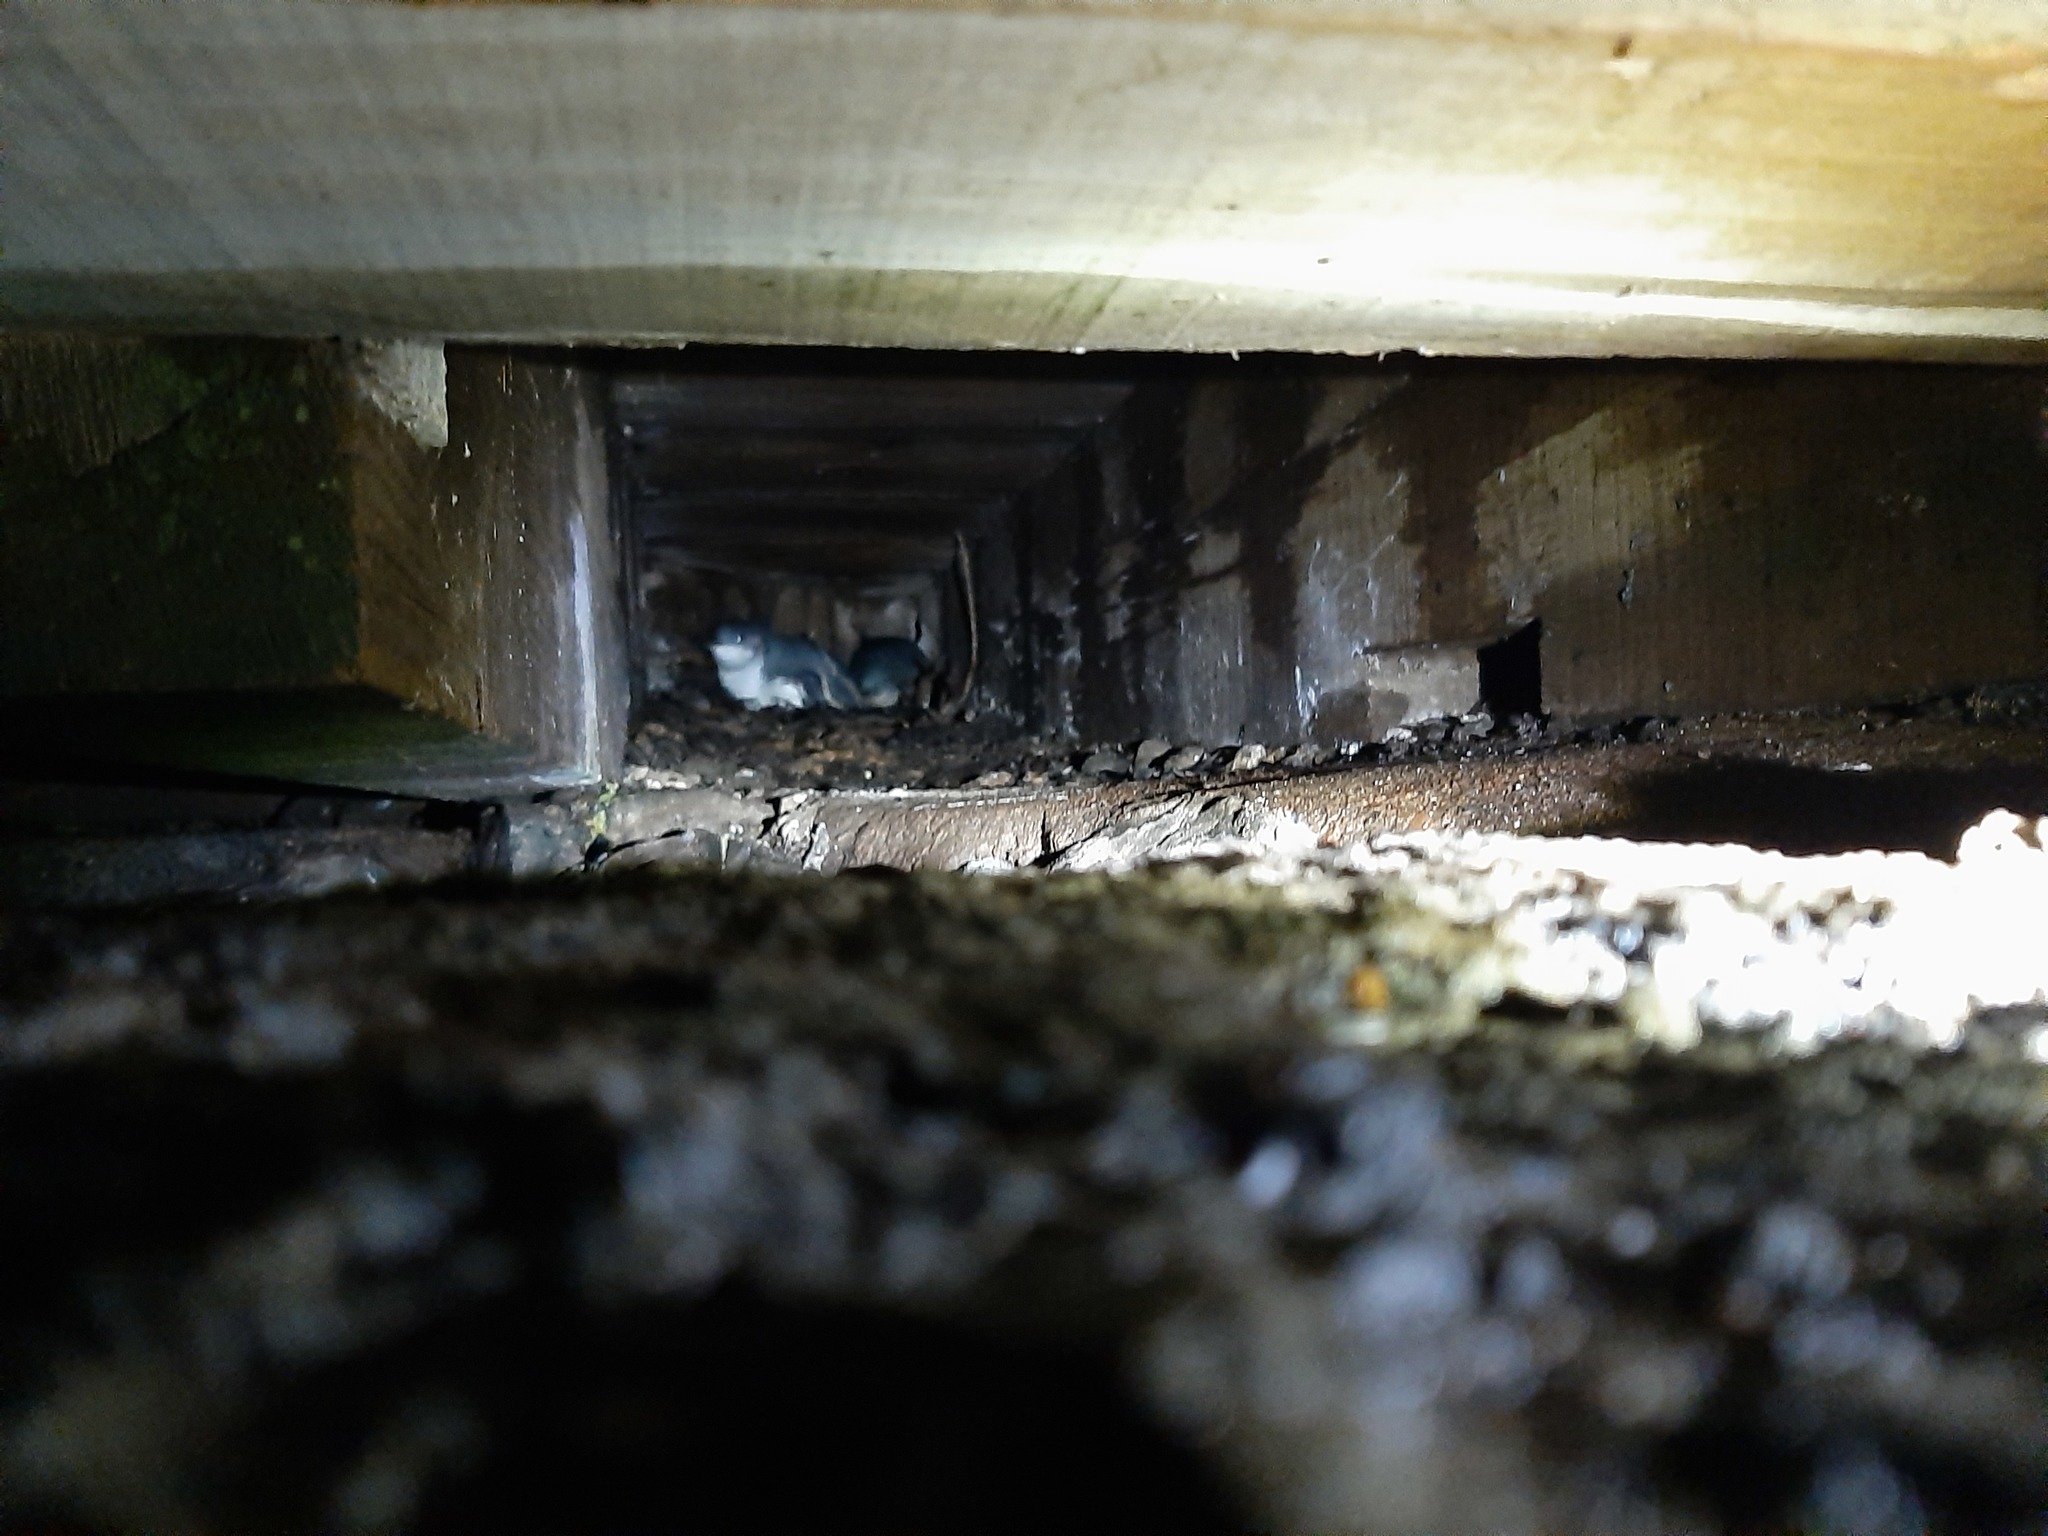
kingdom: Animalia
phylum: Chordata
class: Aves
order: Sphenisciformes
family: Spheniscidae
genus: Eudyptula
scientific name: Eudyptula minor
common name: Little penguin
